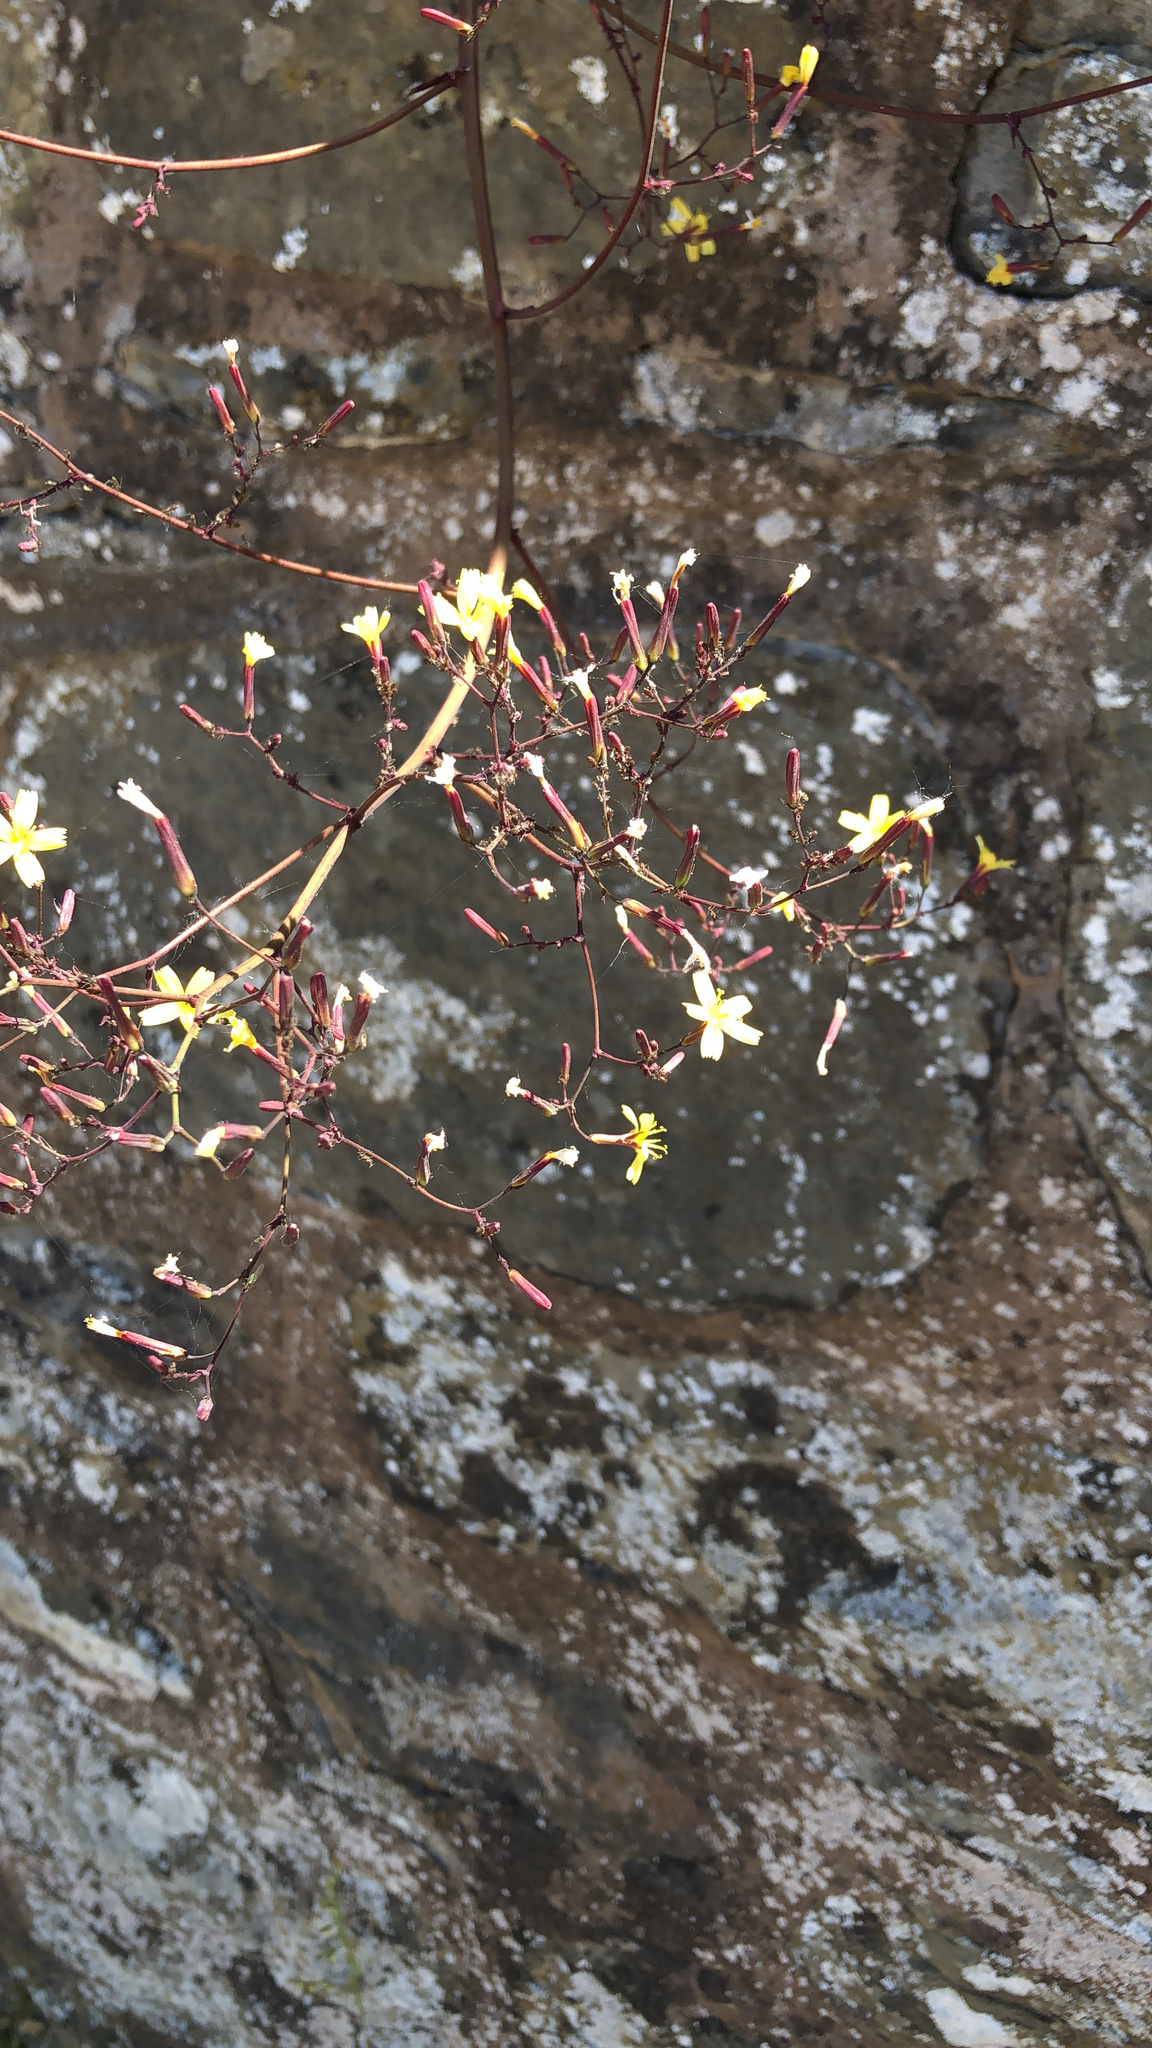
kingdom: Plantae
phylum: Tracheophyta
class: Magnoliopsida
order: Asterales
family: Asteraceae
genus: Mycelis
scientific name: Mycelis muralis
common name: Wall lettuce
